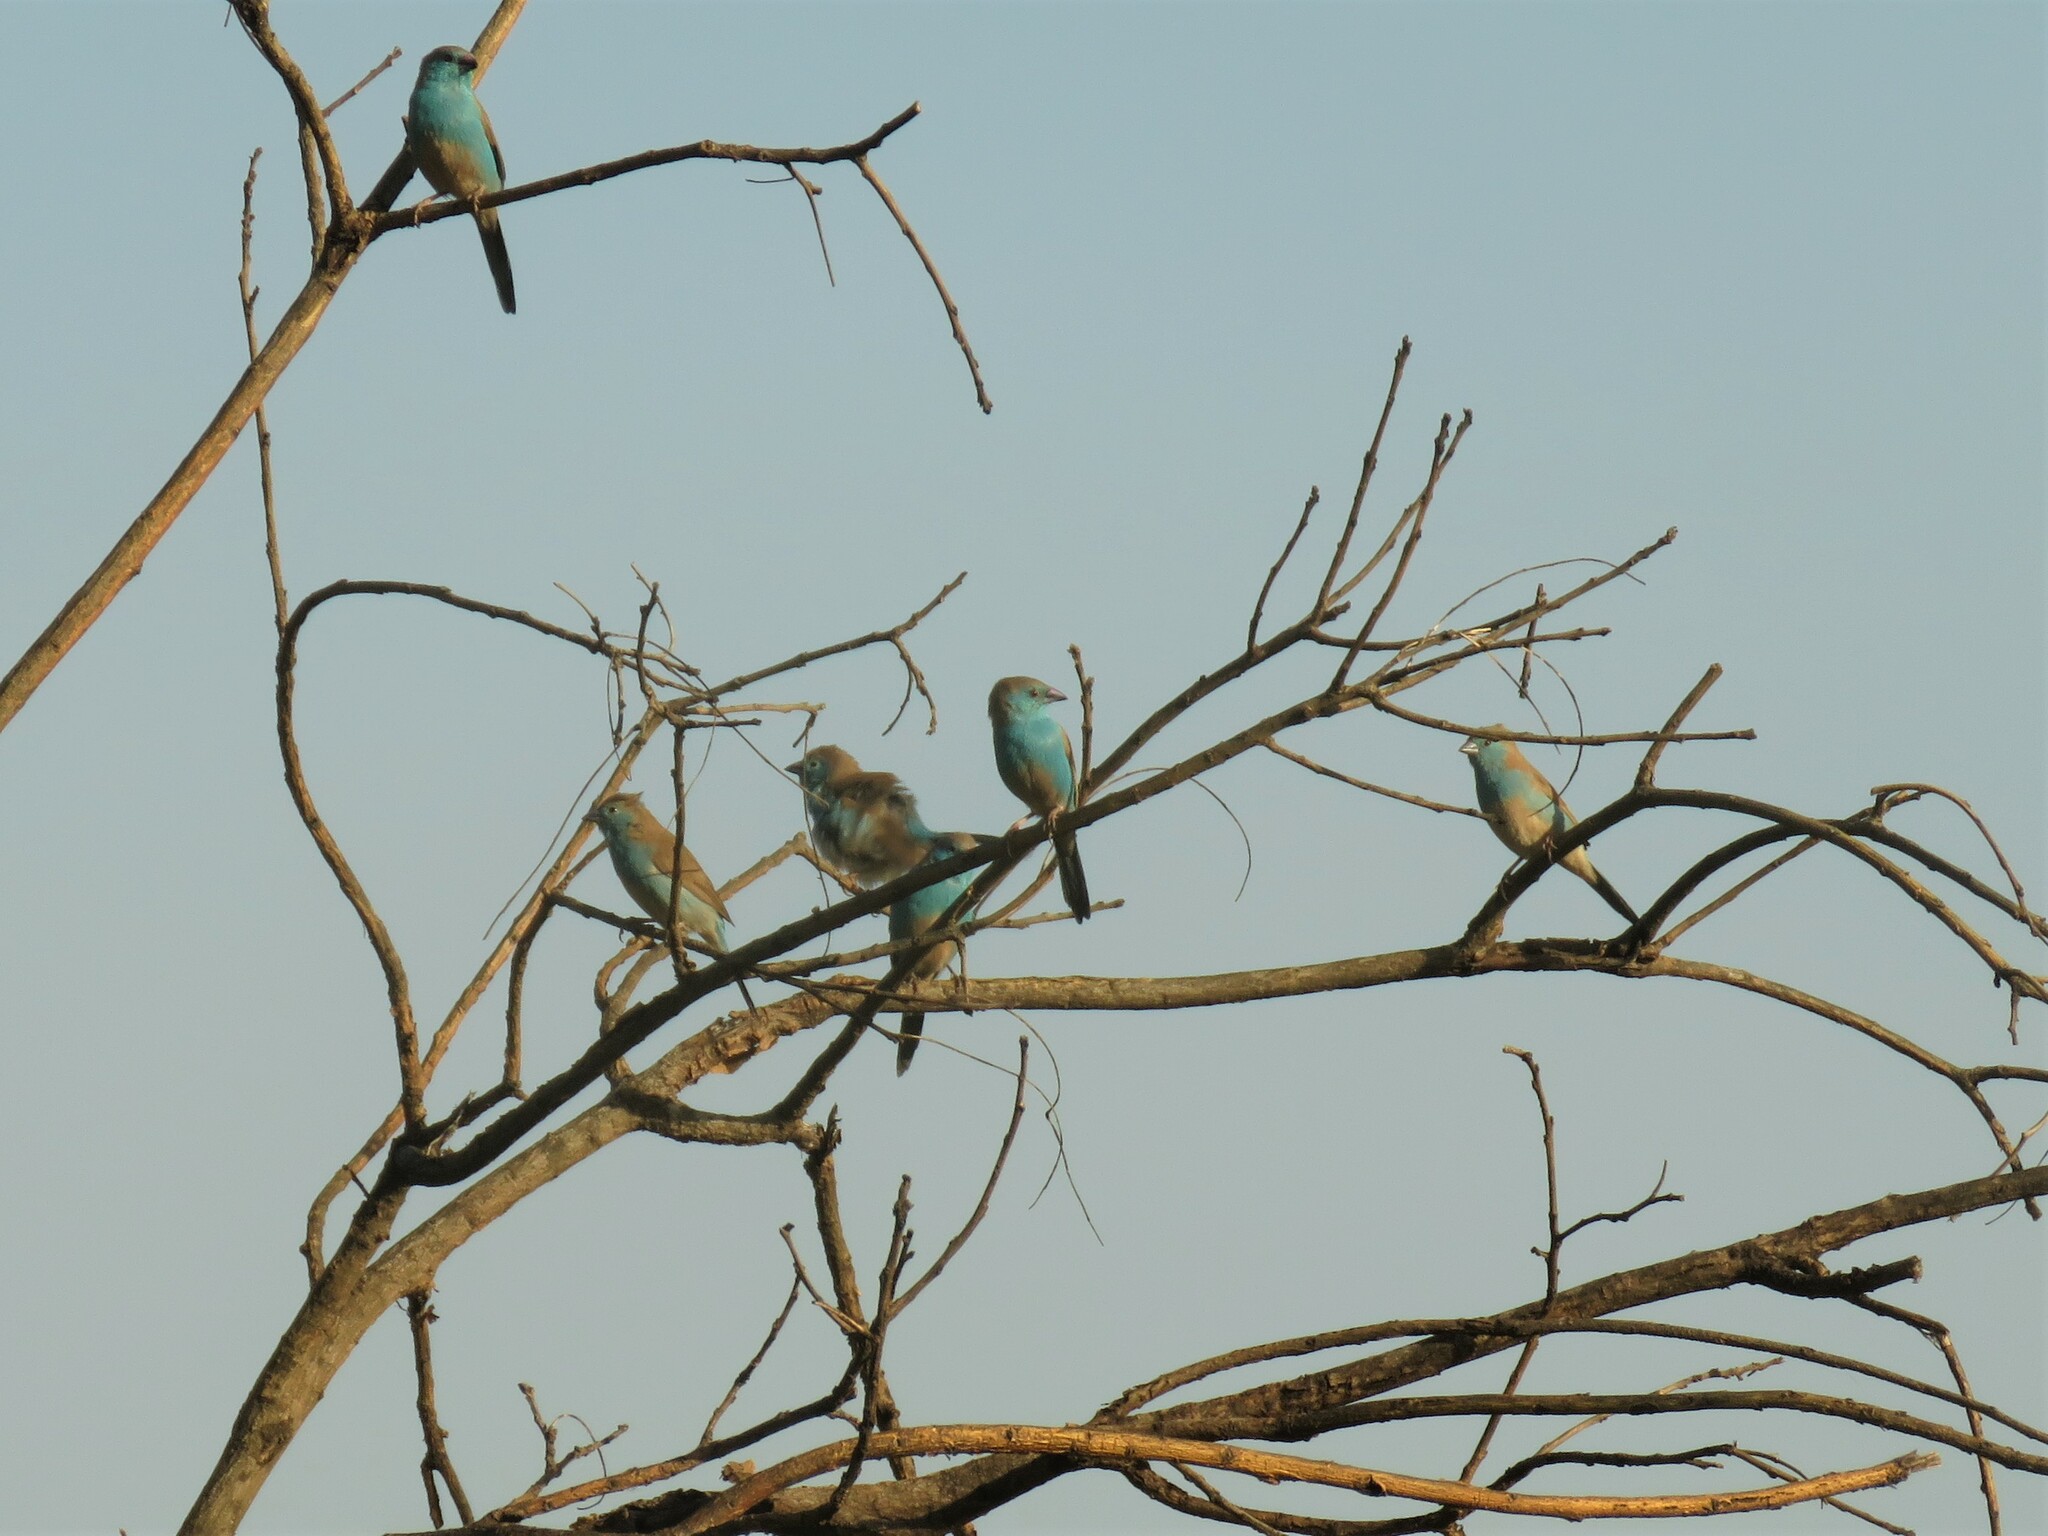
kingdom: Animalia
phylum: Chordata
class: Aves
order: Passeriformes
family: Estrildidae
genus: Uraeginthus
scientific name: Uraeginthus angolensis
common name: Blue waxbill
